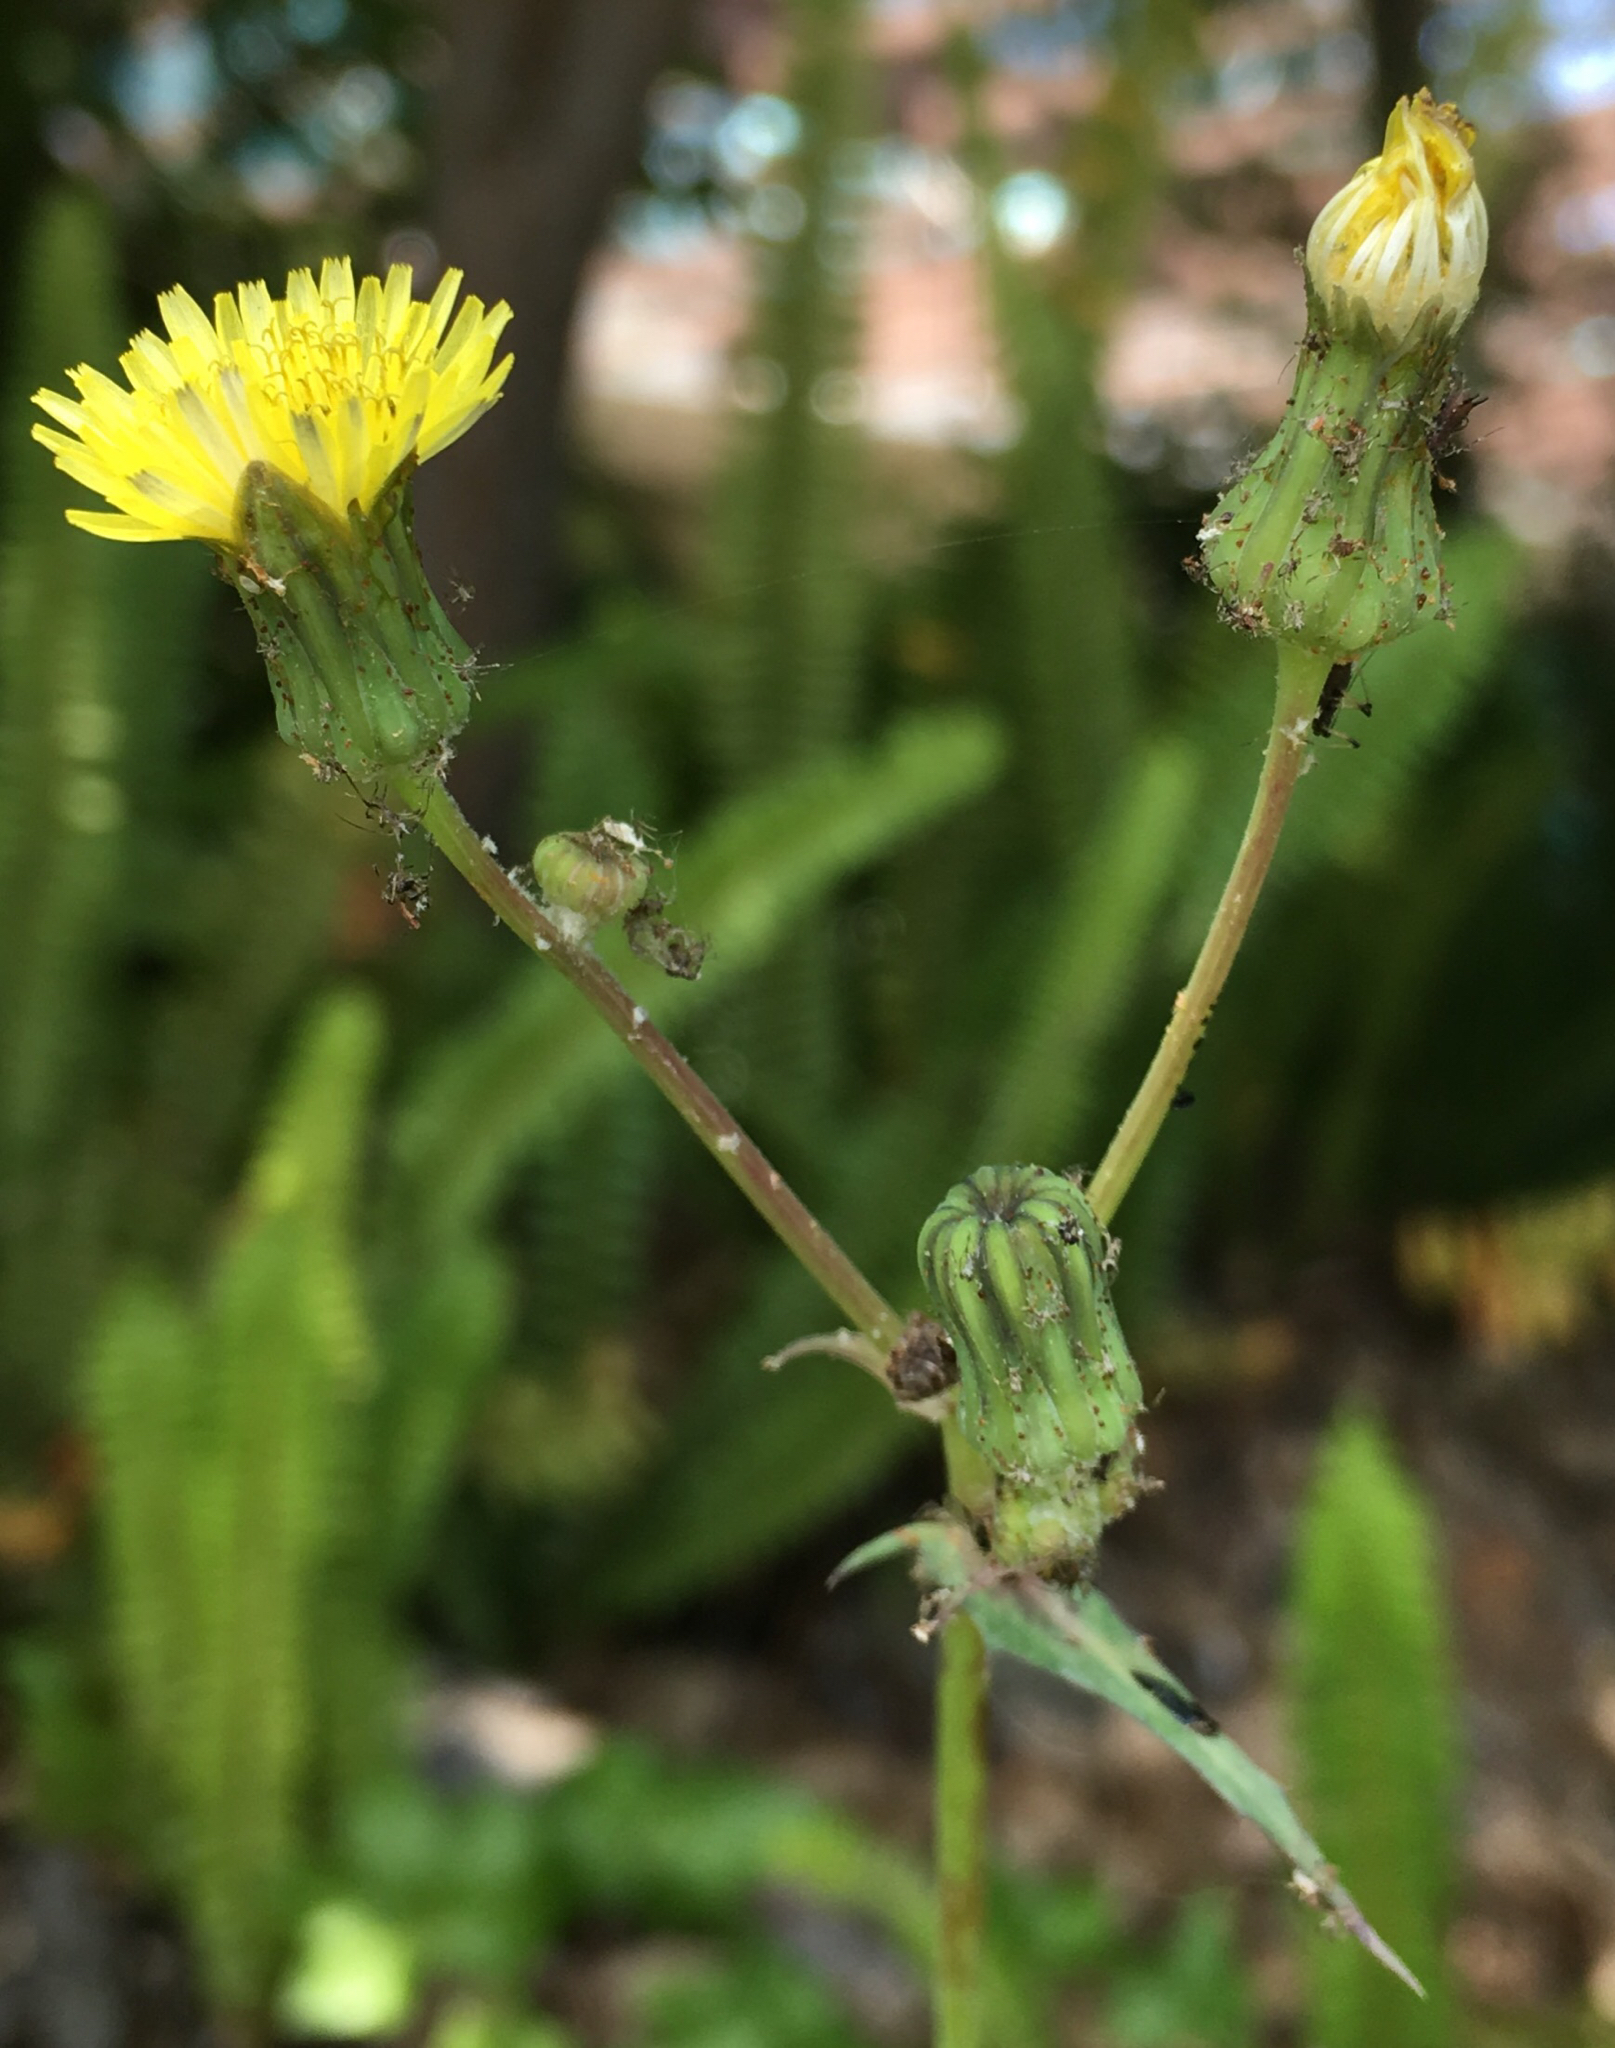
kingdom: Plantae
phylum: Tracheophyta
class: Magnoliopsida
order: Asterales
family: Asteraceae
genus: Sonchus
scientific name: Sonchus oleraceus
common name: Common sowthistle
